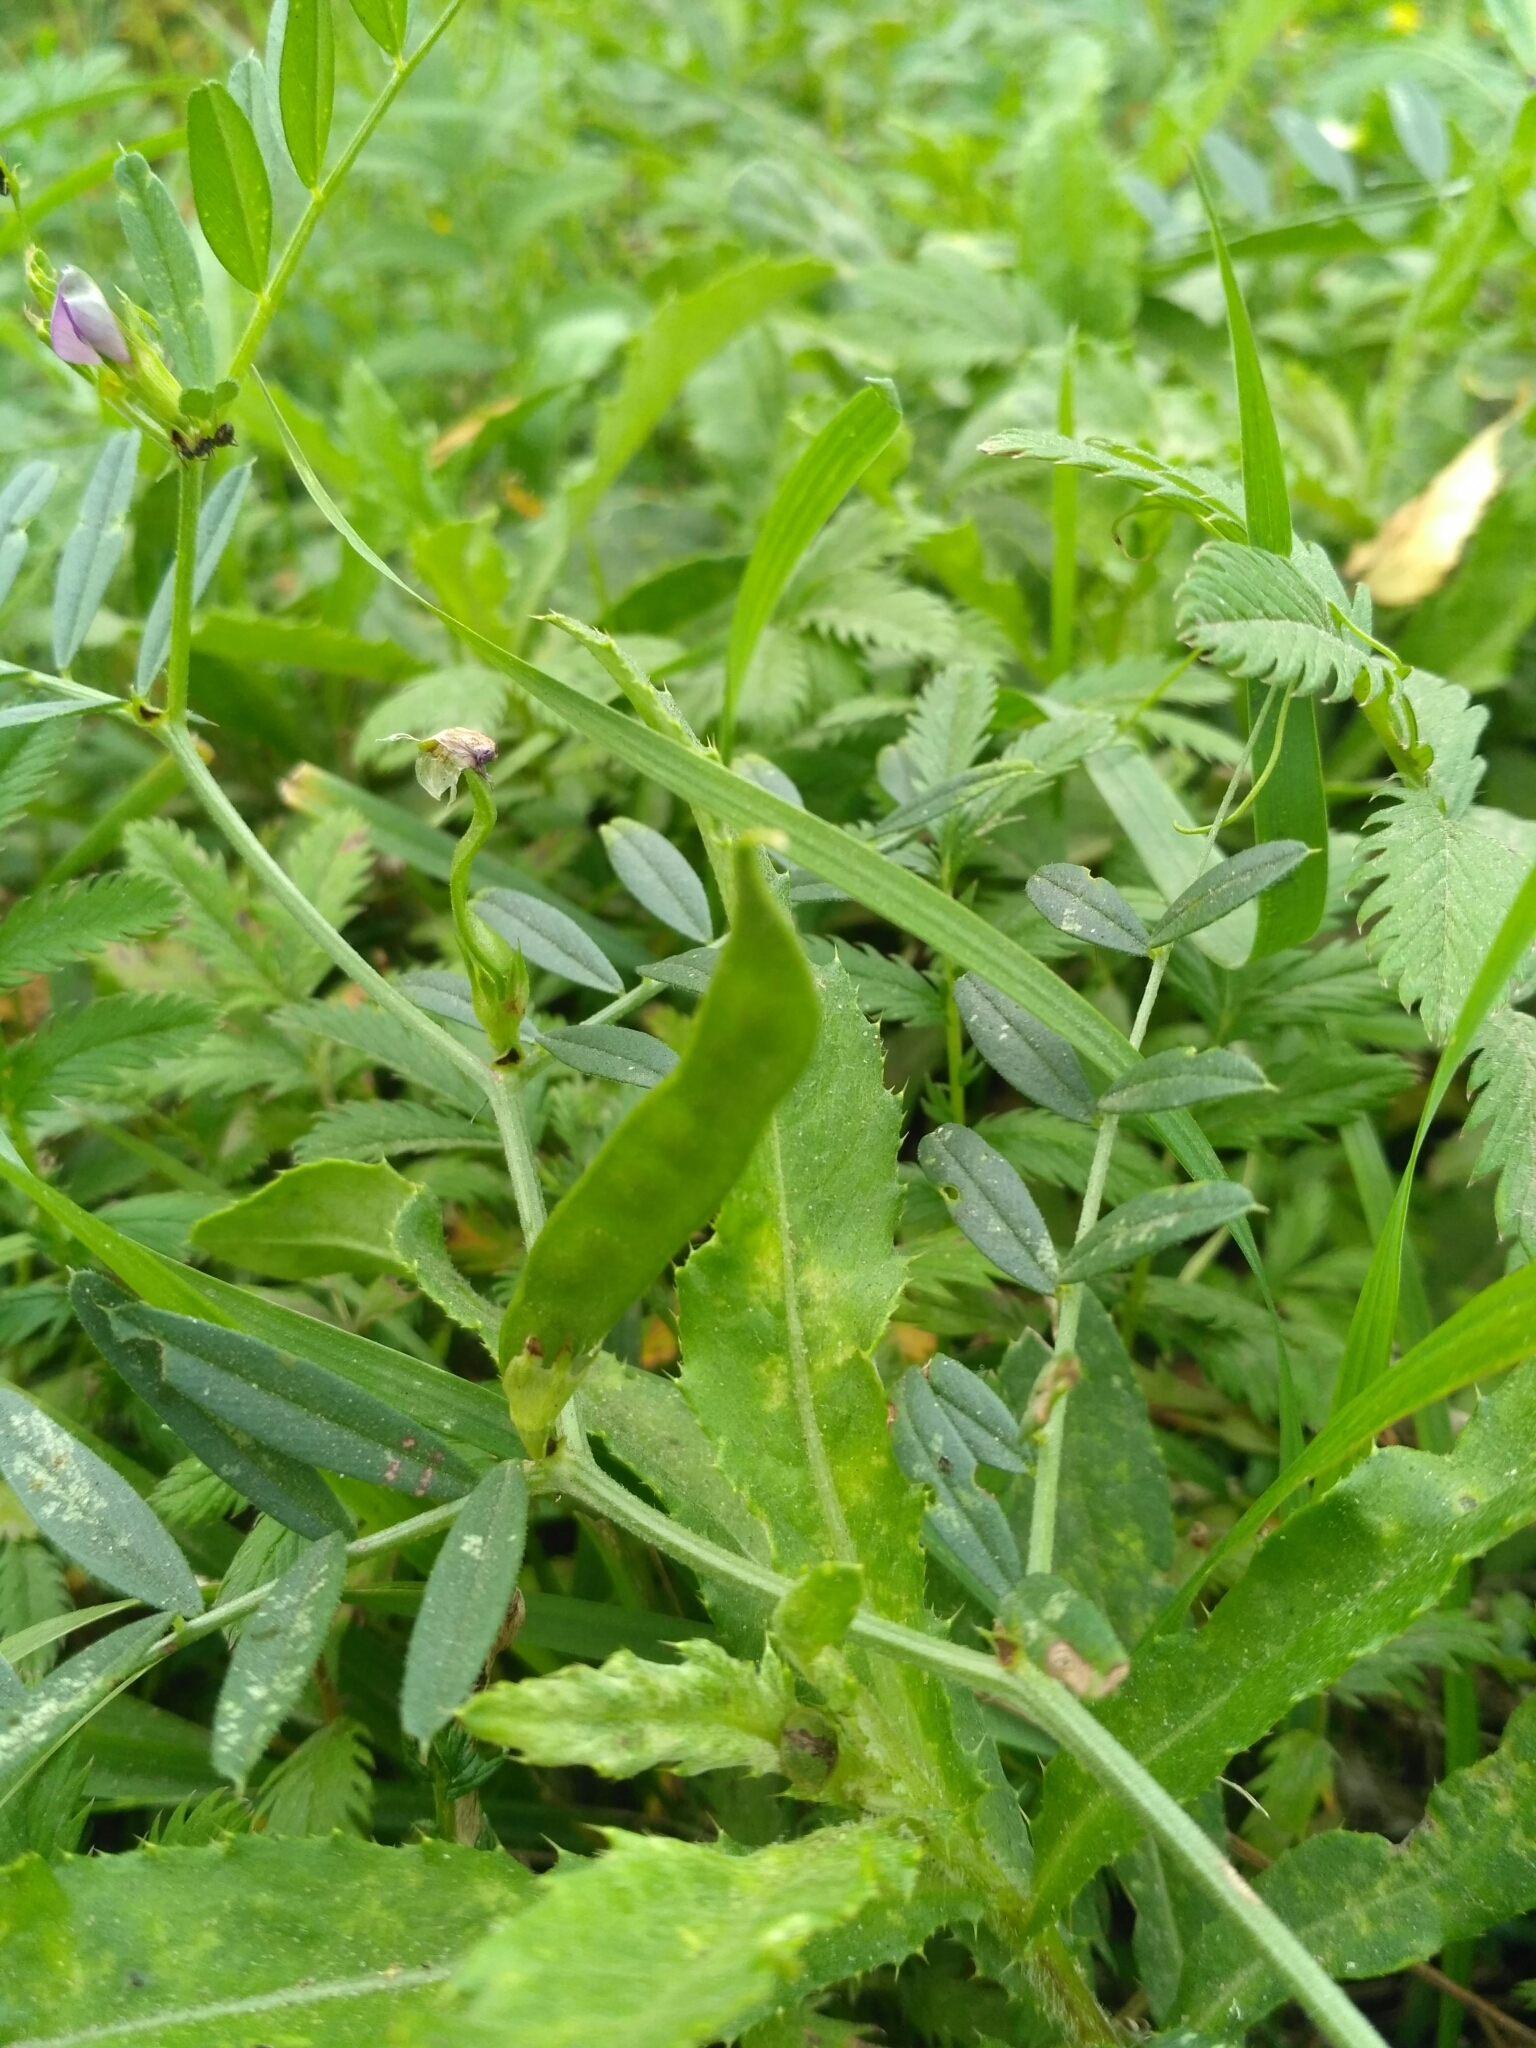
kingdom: Plantae
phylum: Tracheophyta
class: Magnoliopsida
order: Fabales
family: Fabaceae
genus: Vicia
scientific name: Vicia sativa
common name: Garden vetch
